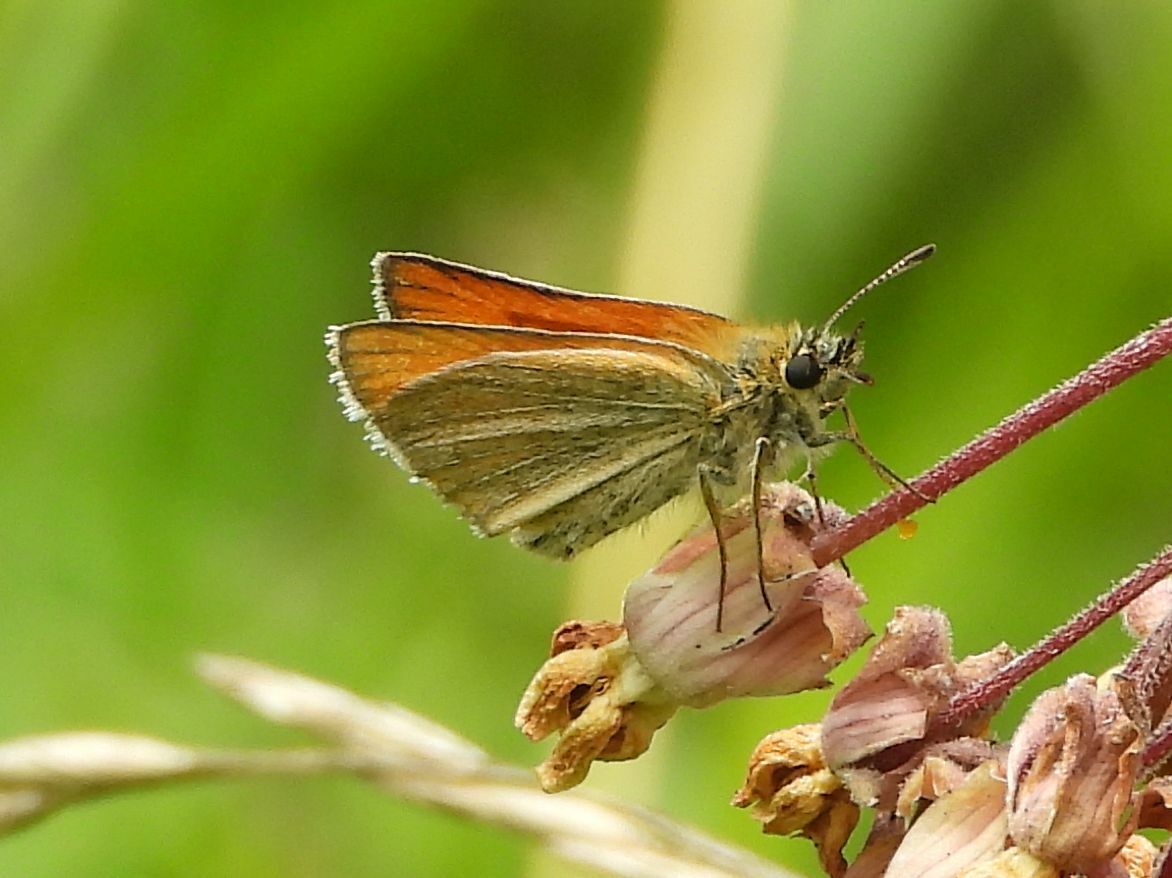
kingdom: Animalia
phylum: Arthropoda
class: Insecta
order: Lepidoptera
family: Hesperiidae
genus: Thymelicus
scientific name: Thymelicus lineola
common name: Essex skipper
